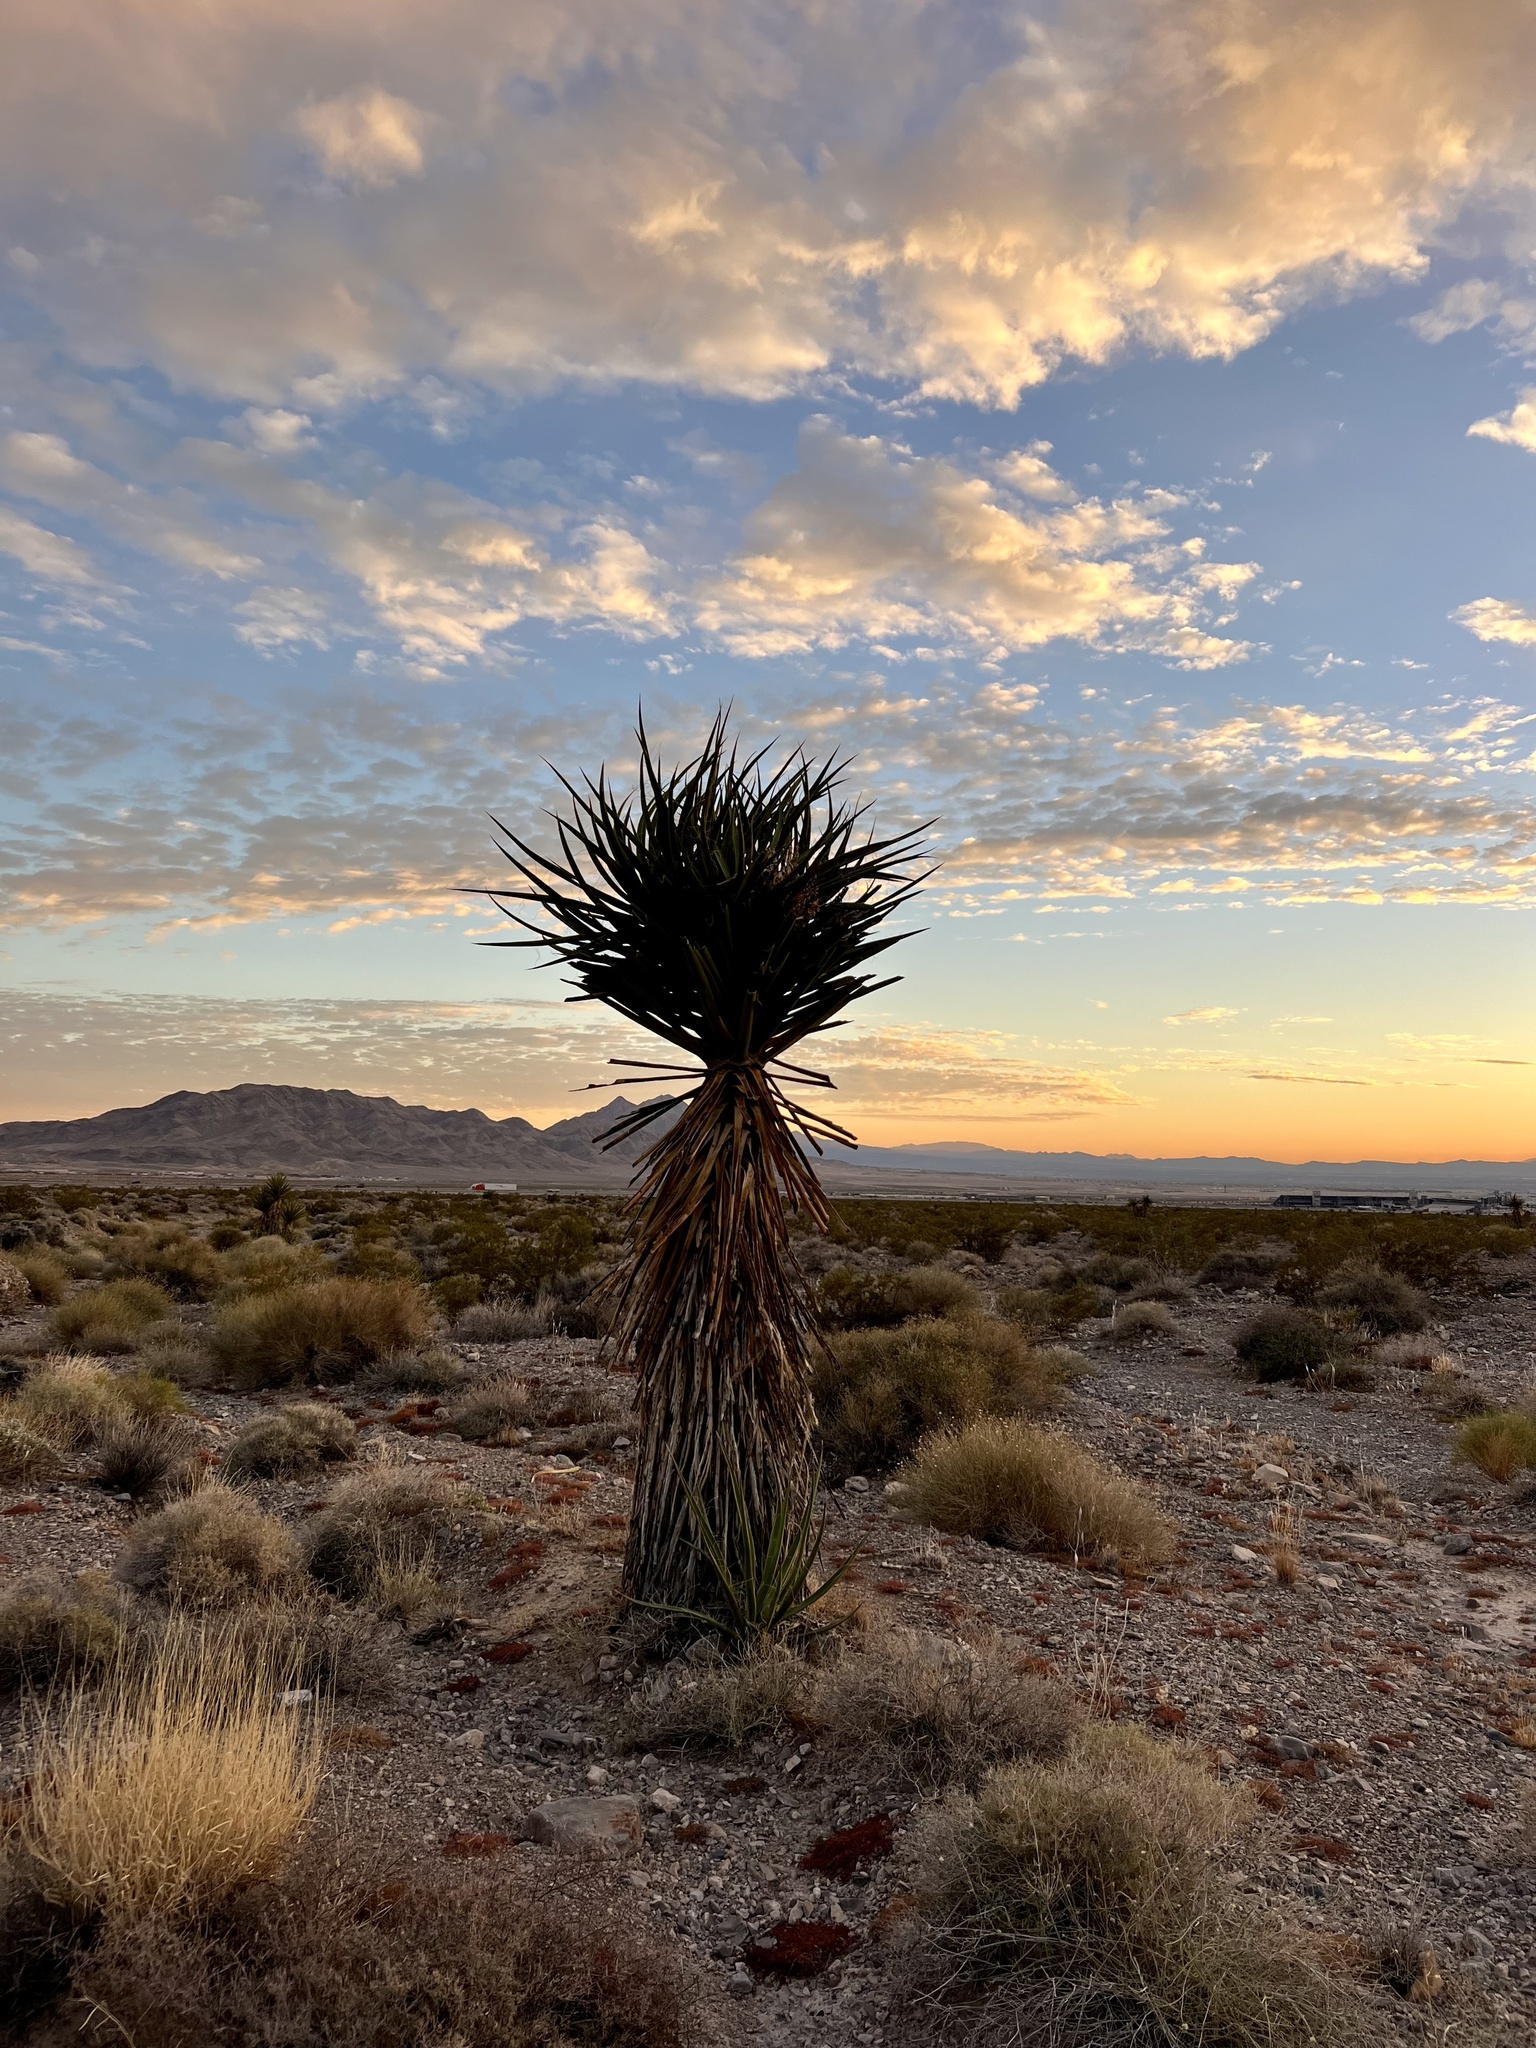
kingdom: Plantae
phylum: Tracheophyta
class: Liliopsida
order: Asparagales
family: Asparagaceae
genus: Yucca
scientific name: Yucca schidigera
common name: Mojave yucca
